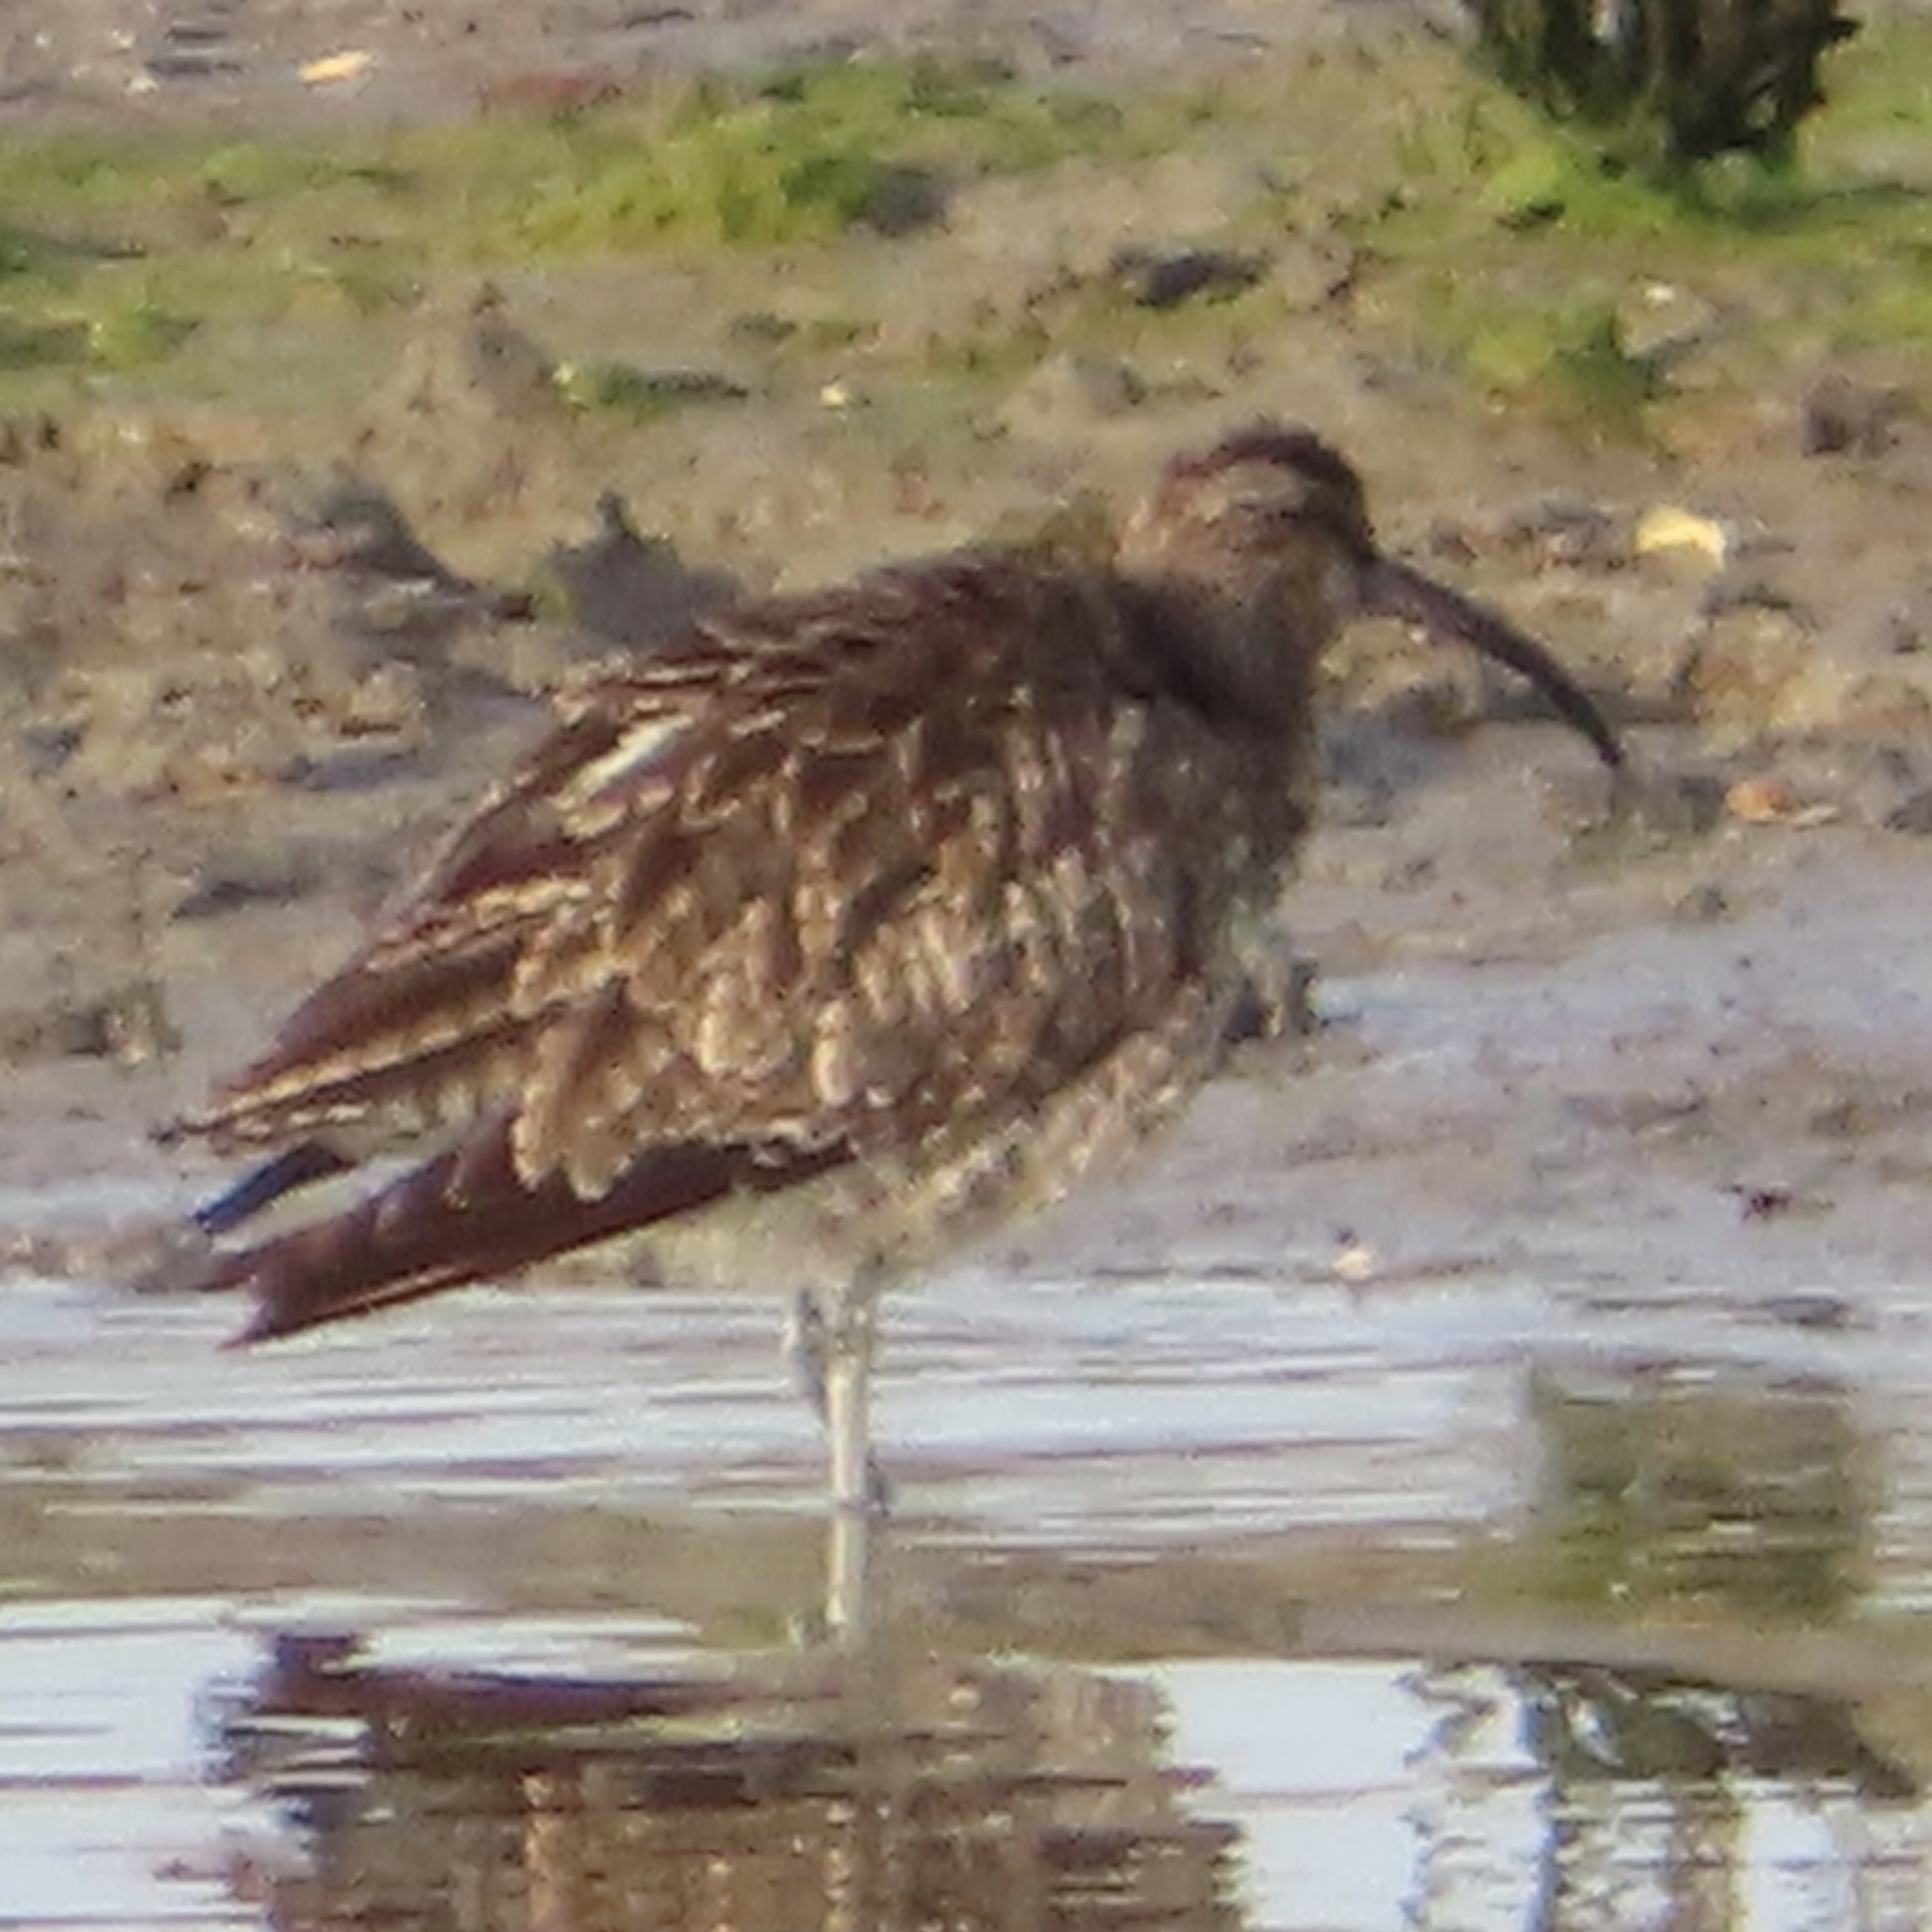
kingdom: Animalia
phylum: Chordata
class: Aves
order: Charadriiformes
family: Scolopacidae
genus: Numenius
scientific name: Numenius phaeopus
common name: Whimbrel
